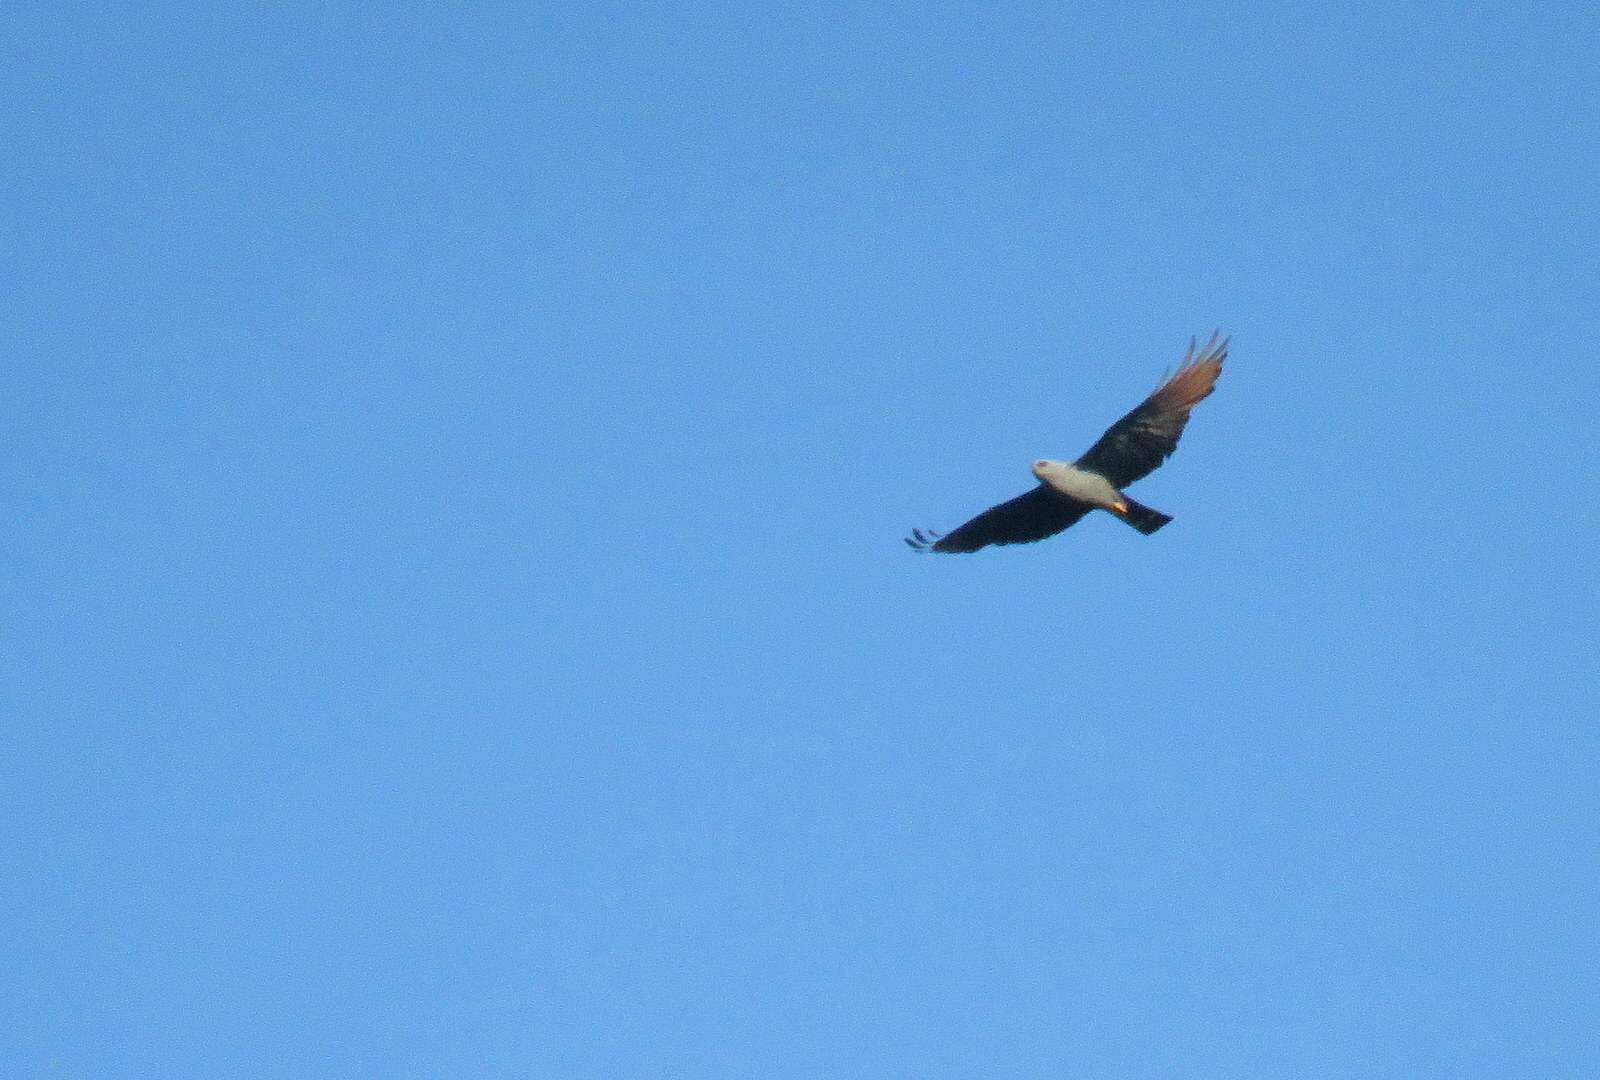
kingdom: Animalia
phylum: Chordata
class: Aves
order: Accipitriformes
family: Accipitridae
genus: Ictinia
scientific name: Ictinia plumbea
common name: Plumbeous kite
